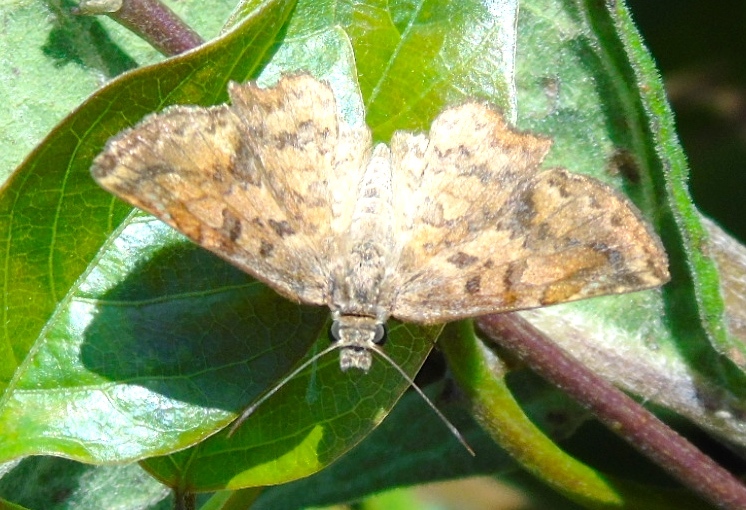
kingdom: Animalia
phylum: Arthropoda
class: Insecta
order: Lepidoptera
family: Hesperiidae
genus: Antigonus
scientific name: Antigonus erosus
